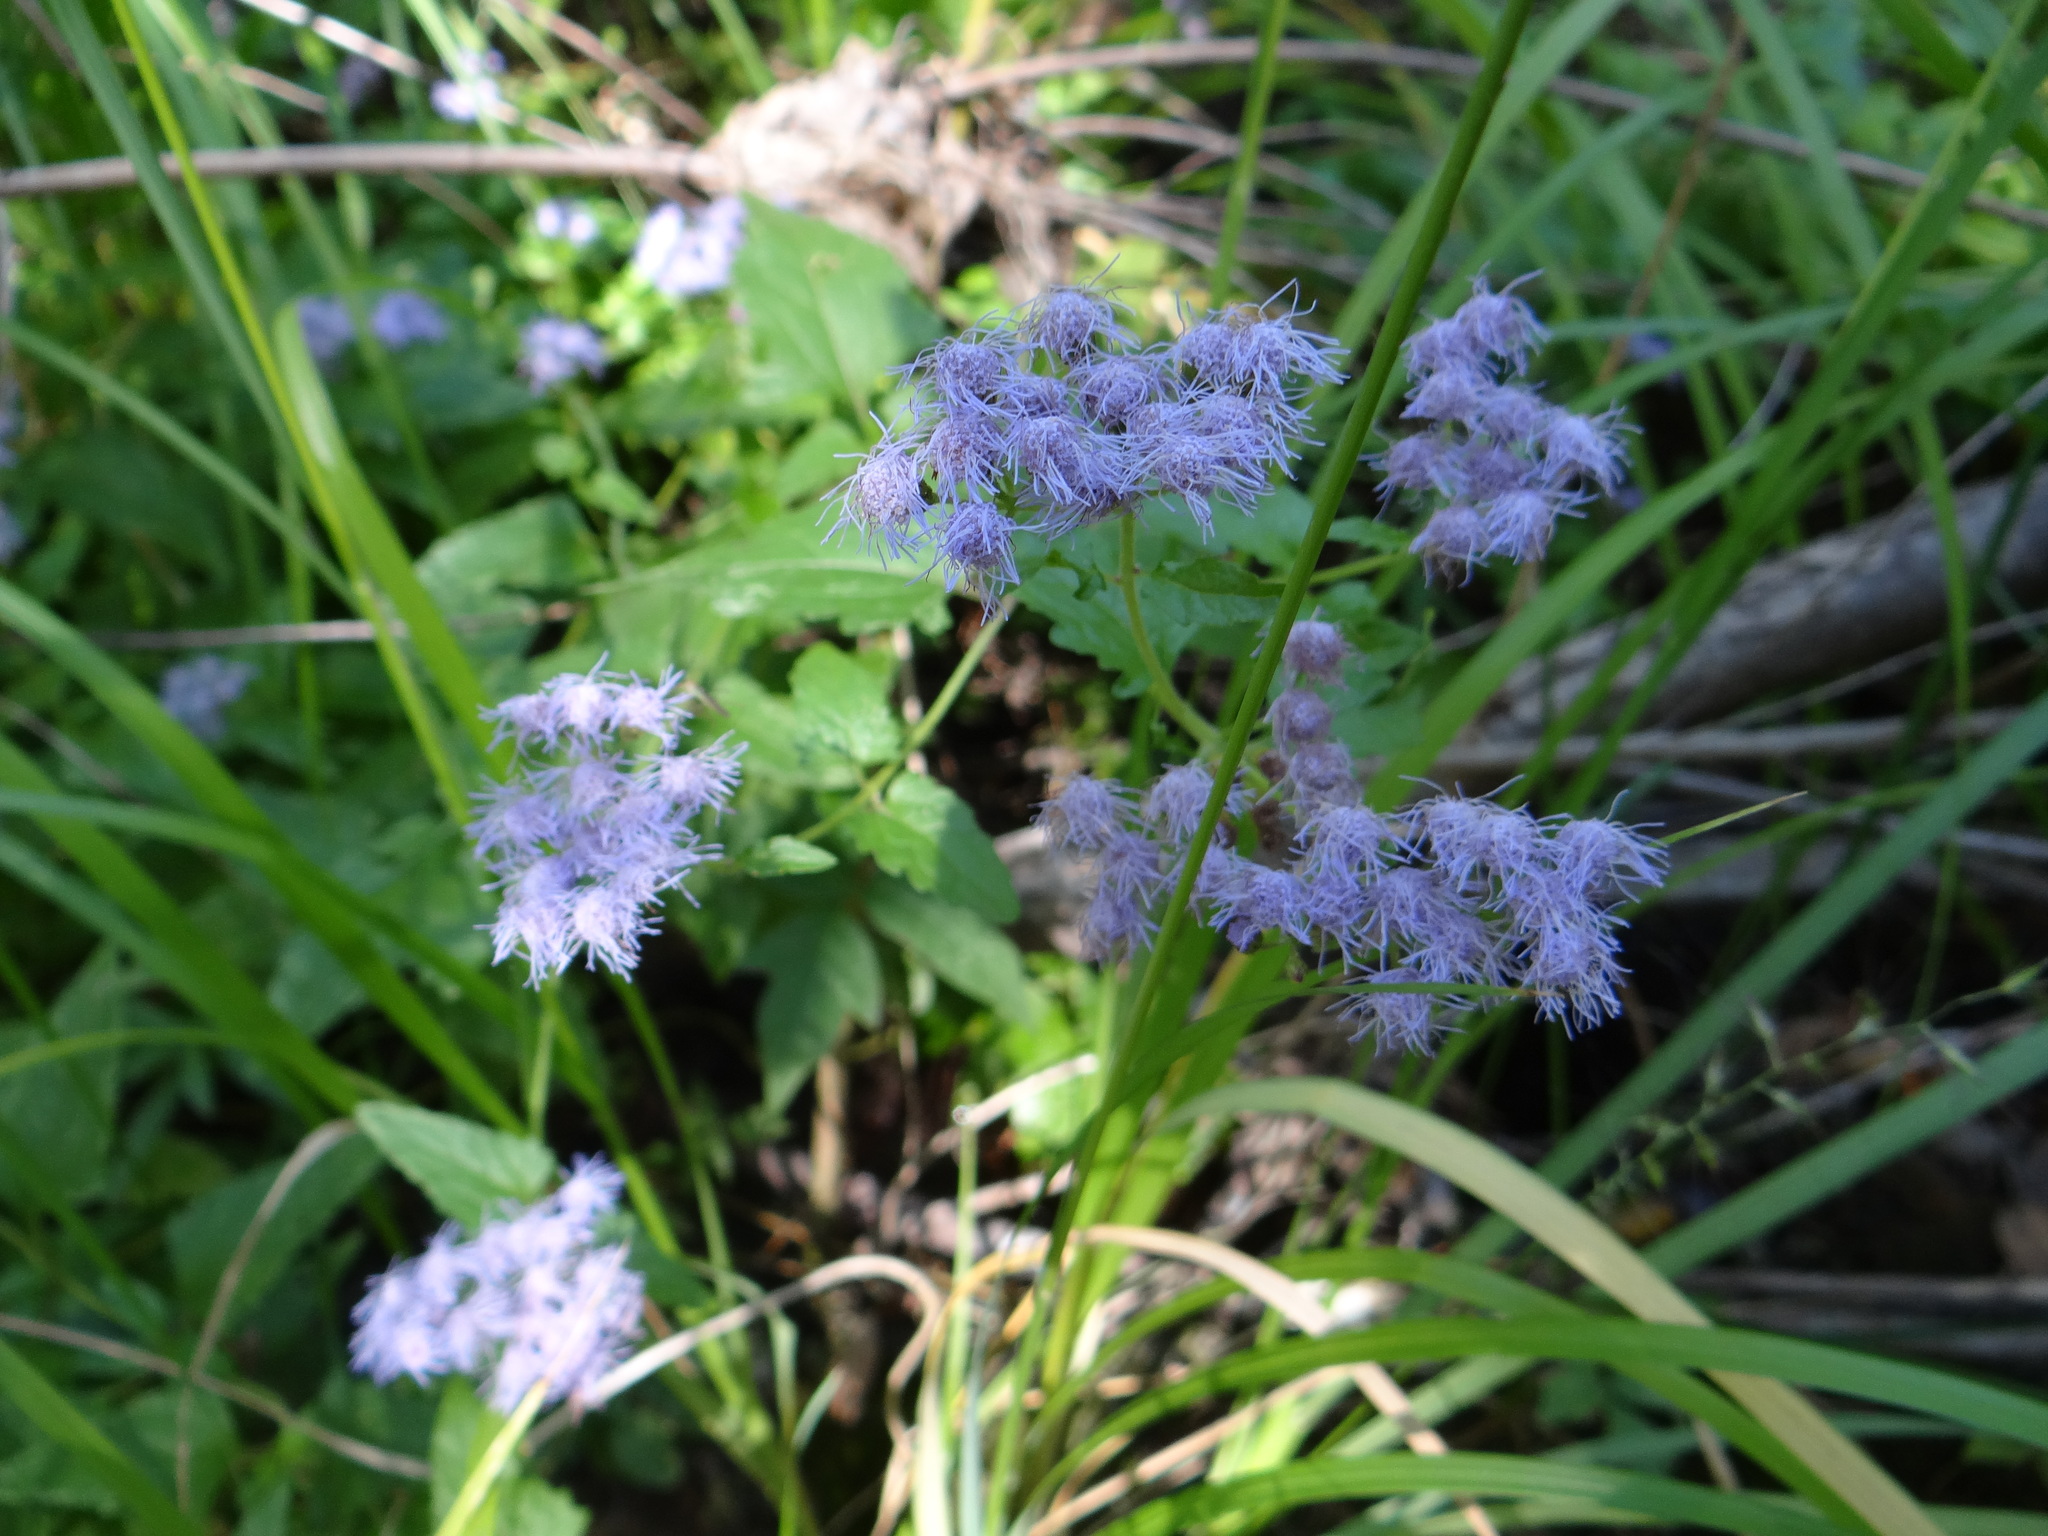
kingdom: Plantae
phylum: Tracheophyta
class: Magnoliopsida
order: Asterales
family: Asteraceae
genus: Conoclinium
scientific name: Conoclinium coelestinum
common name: Blue mistflower
